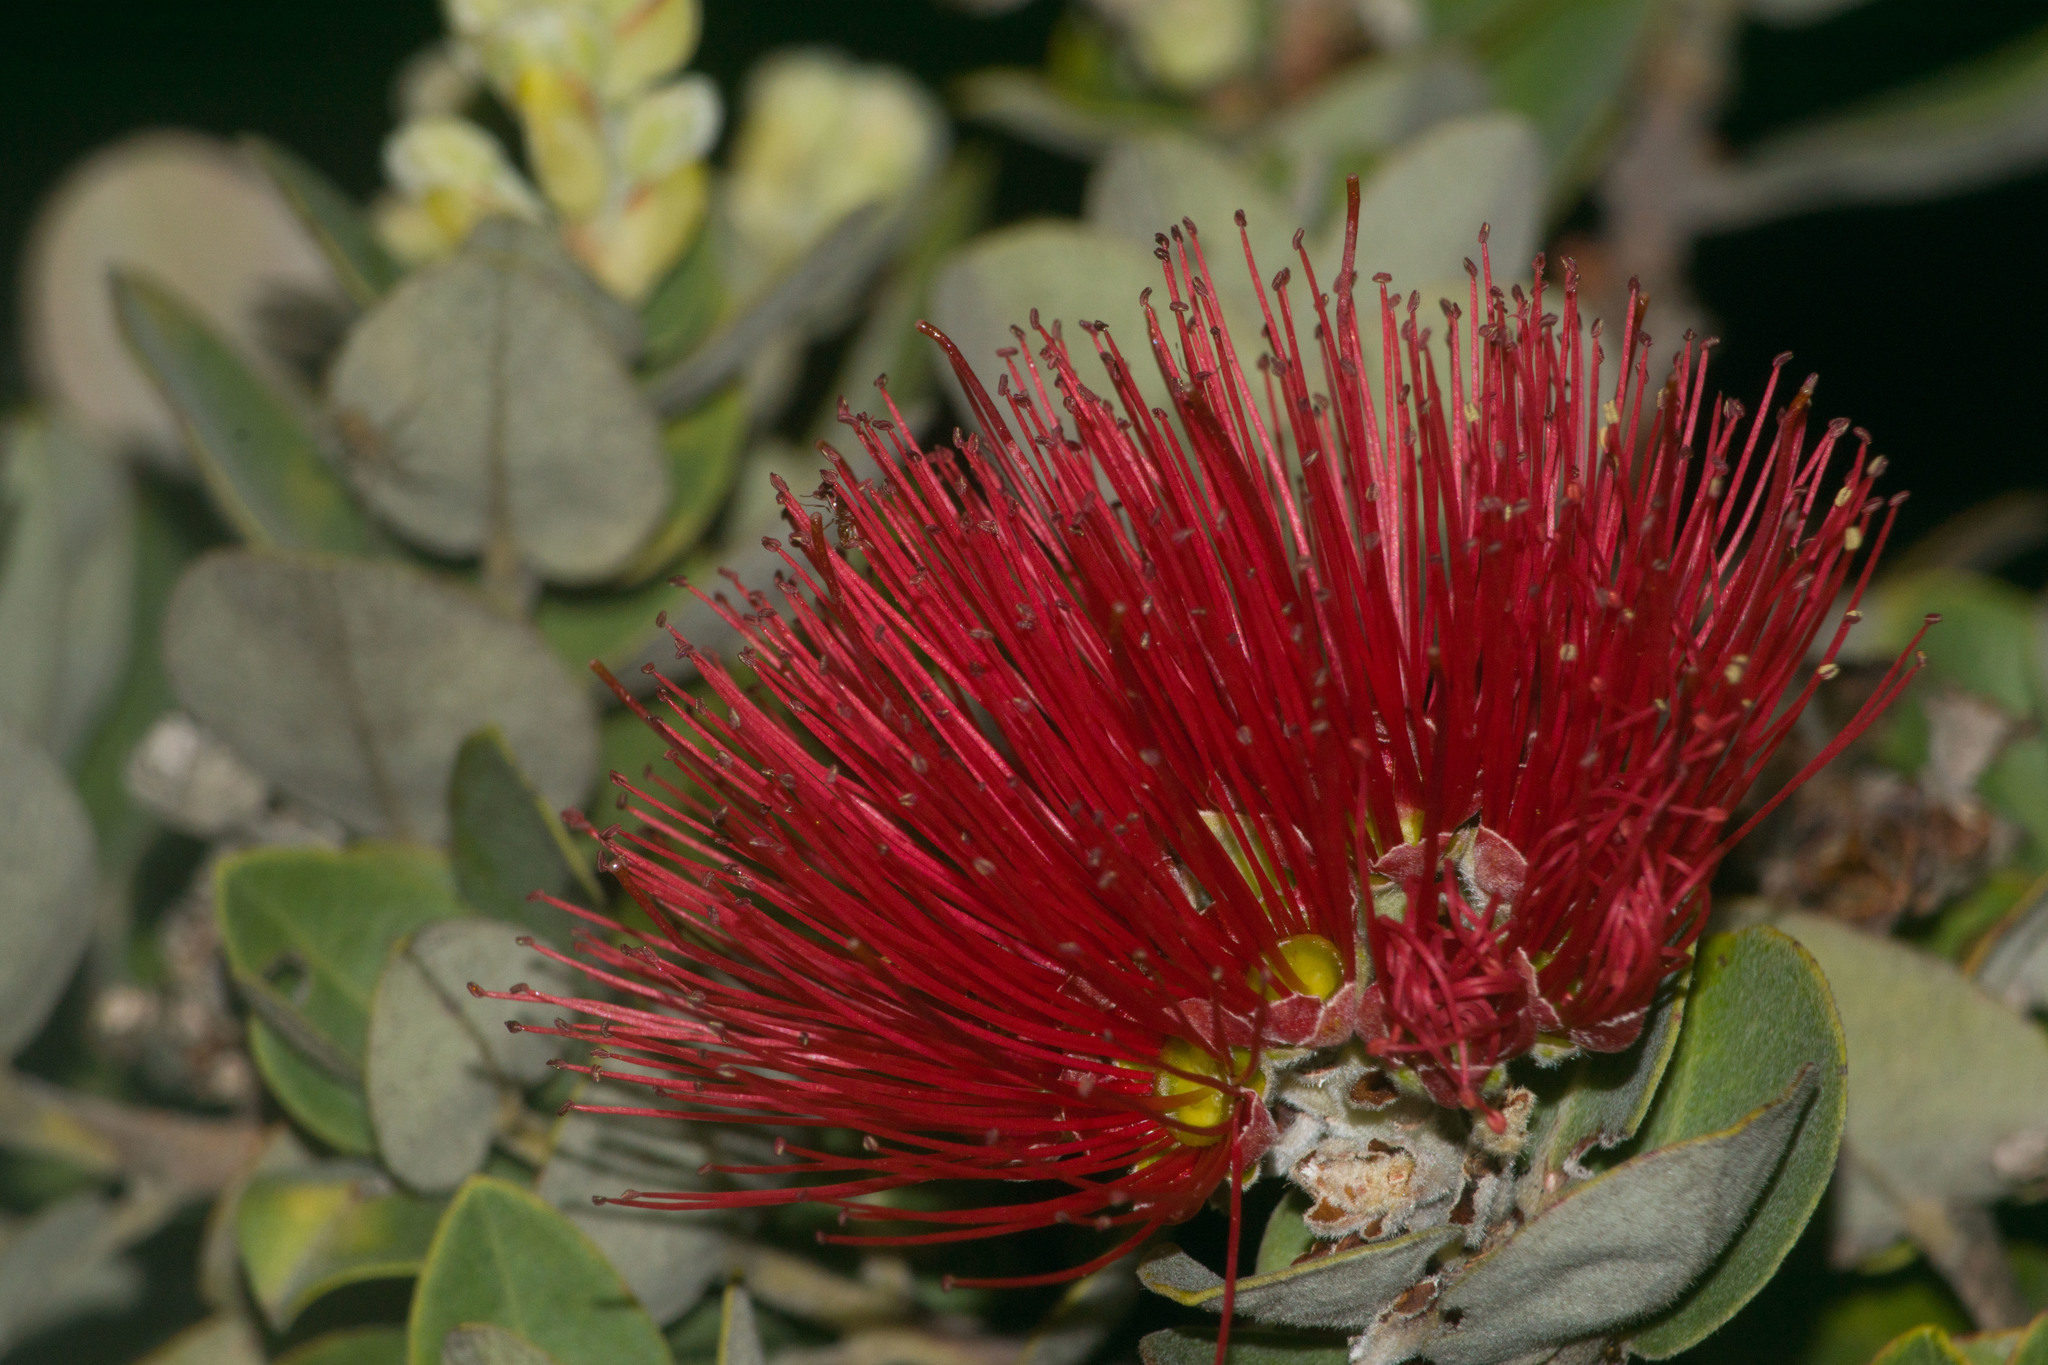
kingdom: Plantae
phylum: Tracheophyta
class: Magnoliopsida
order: Myrtales
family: Myrtaceae
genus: Metrosideros
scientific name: Metrosideros polymorpha
